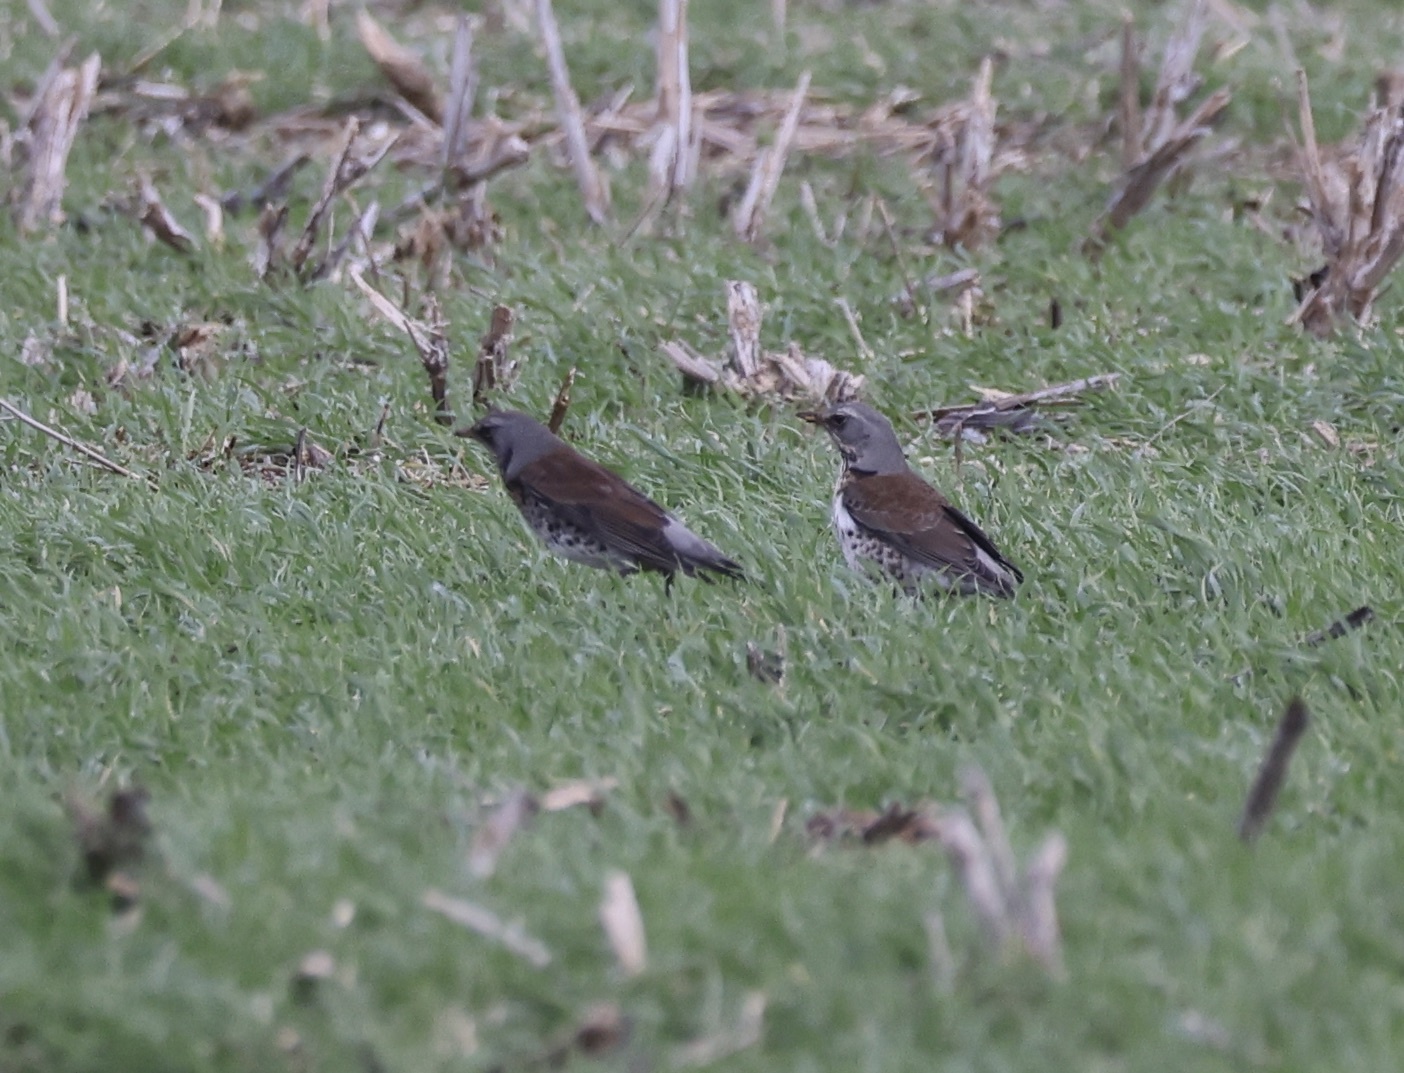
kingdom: Animalia
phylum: Chordata
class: Aves
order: Passeriformes
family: Turdidae
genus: Turdus
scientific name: Turdus pilaris
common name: Fieldfare
